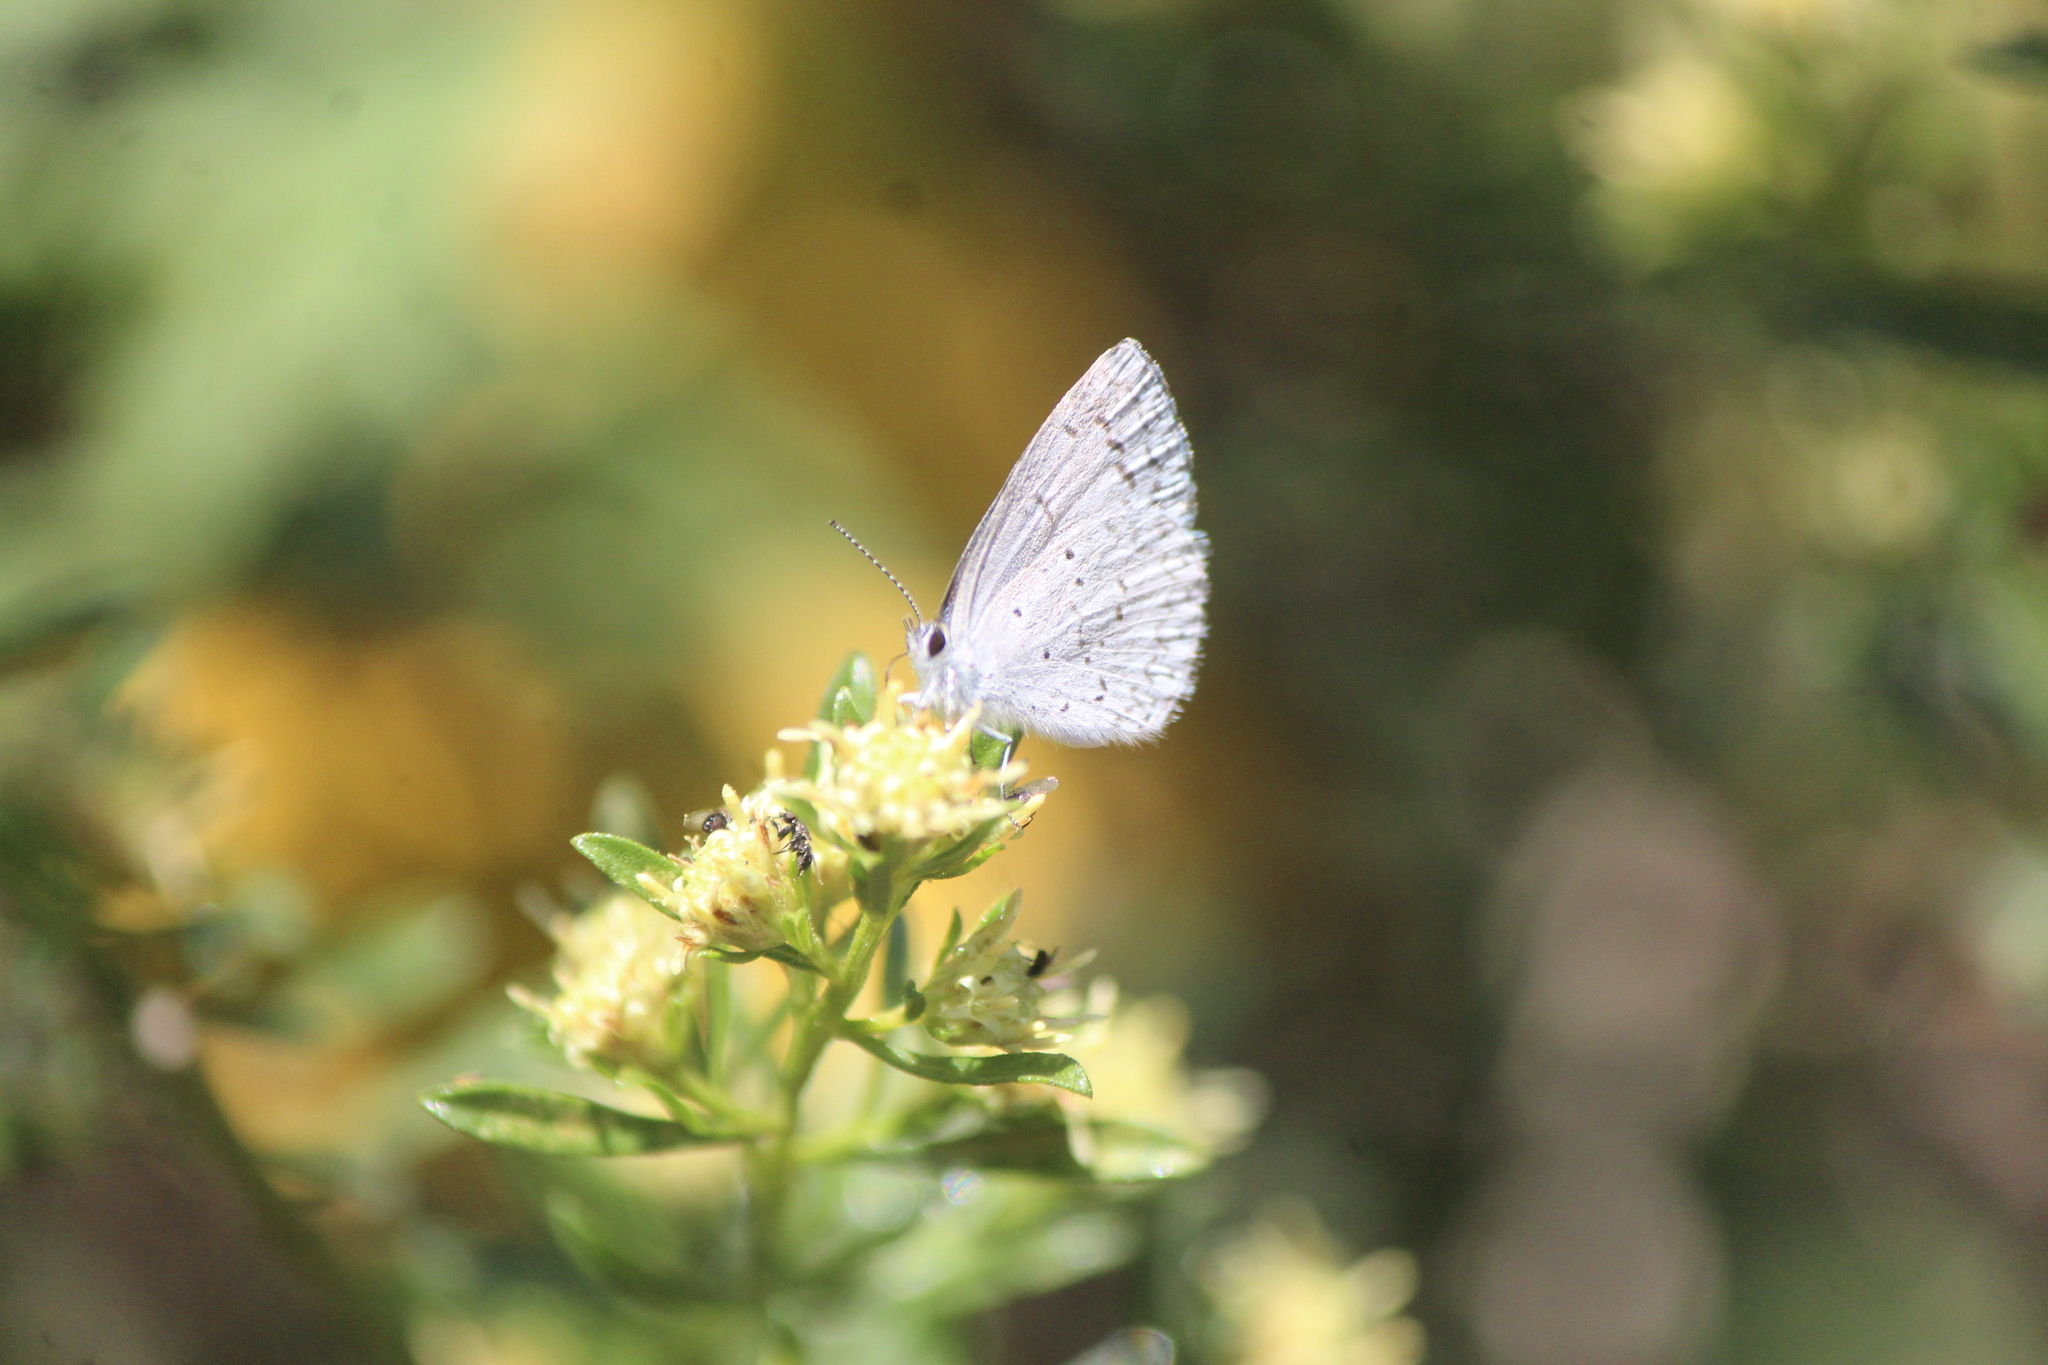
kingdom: Animalia
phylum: Arthropoda
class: Insecta
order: Lepidoptera
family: Lycaenidae
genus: Celastrina
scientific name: Celastrina ladon
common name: Spring azure
